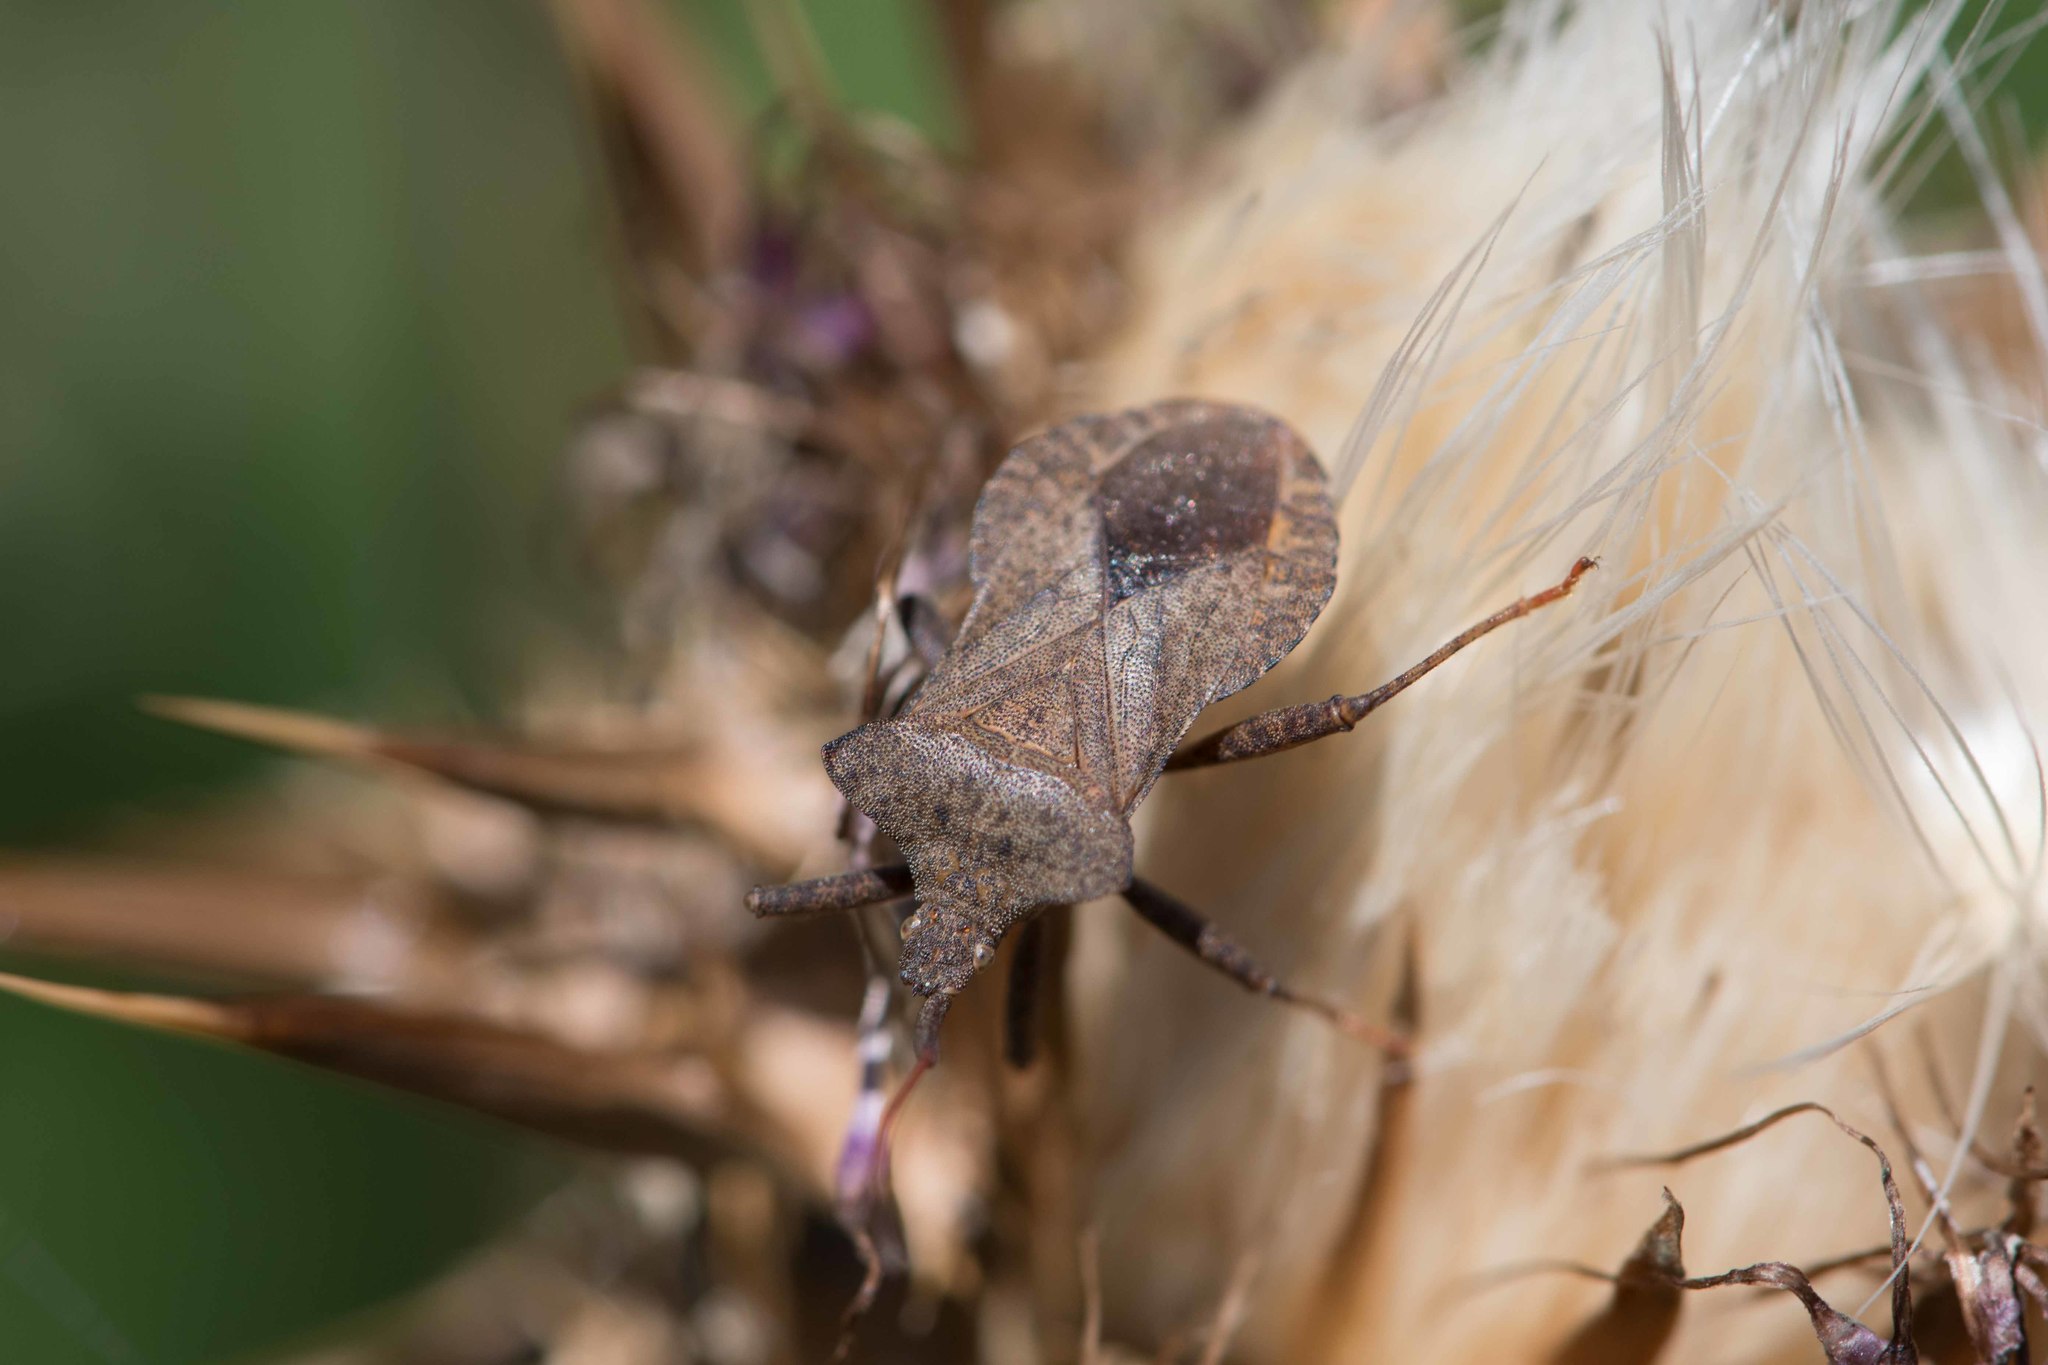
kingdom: Animalia
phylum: Arthropoda
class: Insecta
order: Hemiptera
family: Coreidae
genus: Coreus
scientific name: Coreus marginatus
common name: Dock bug
